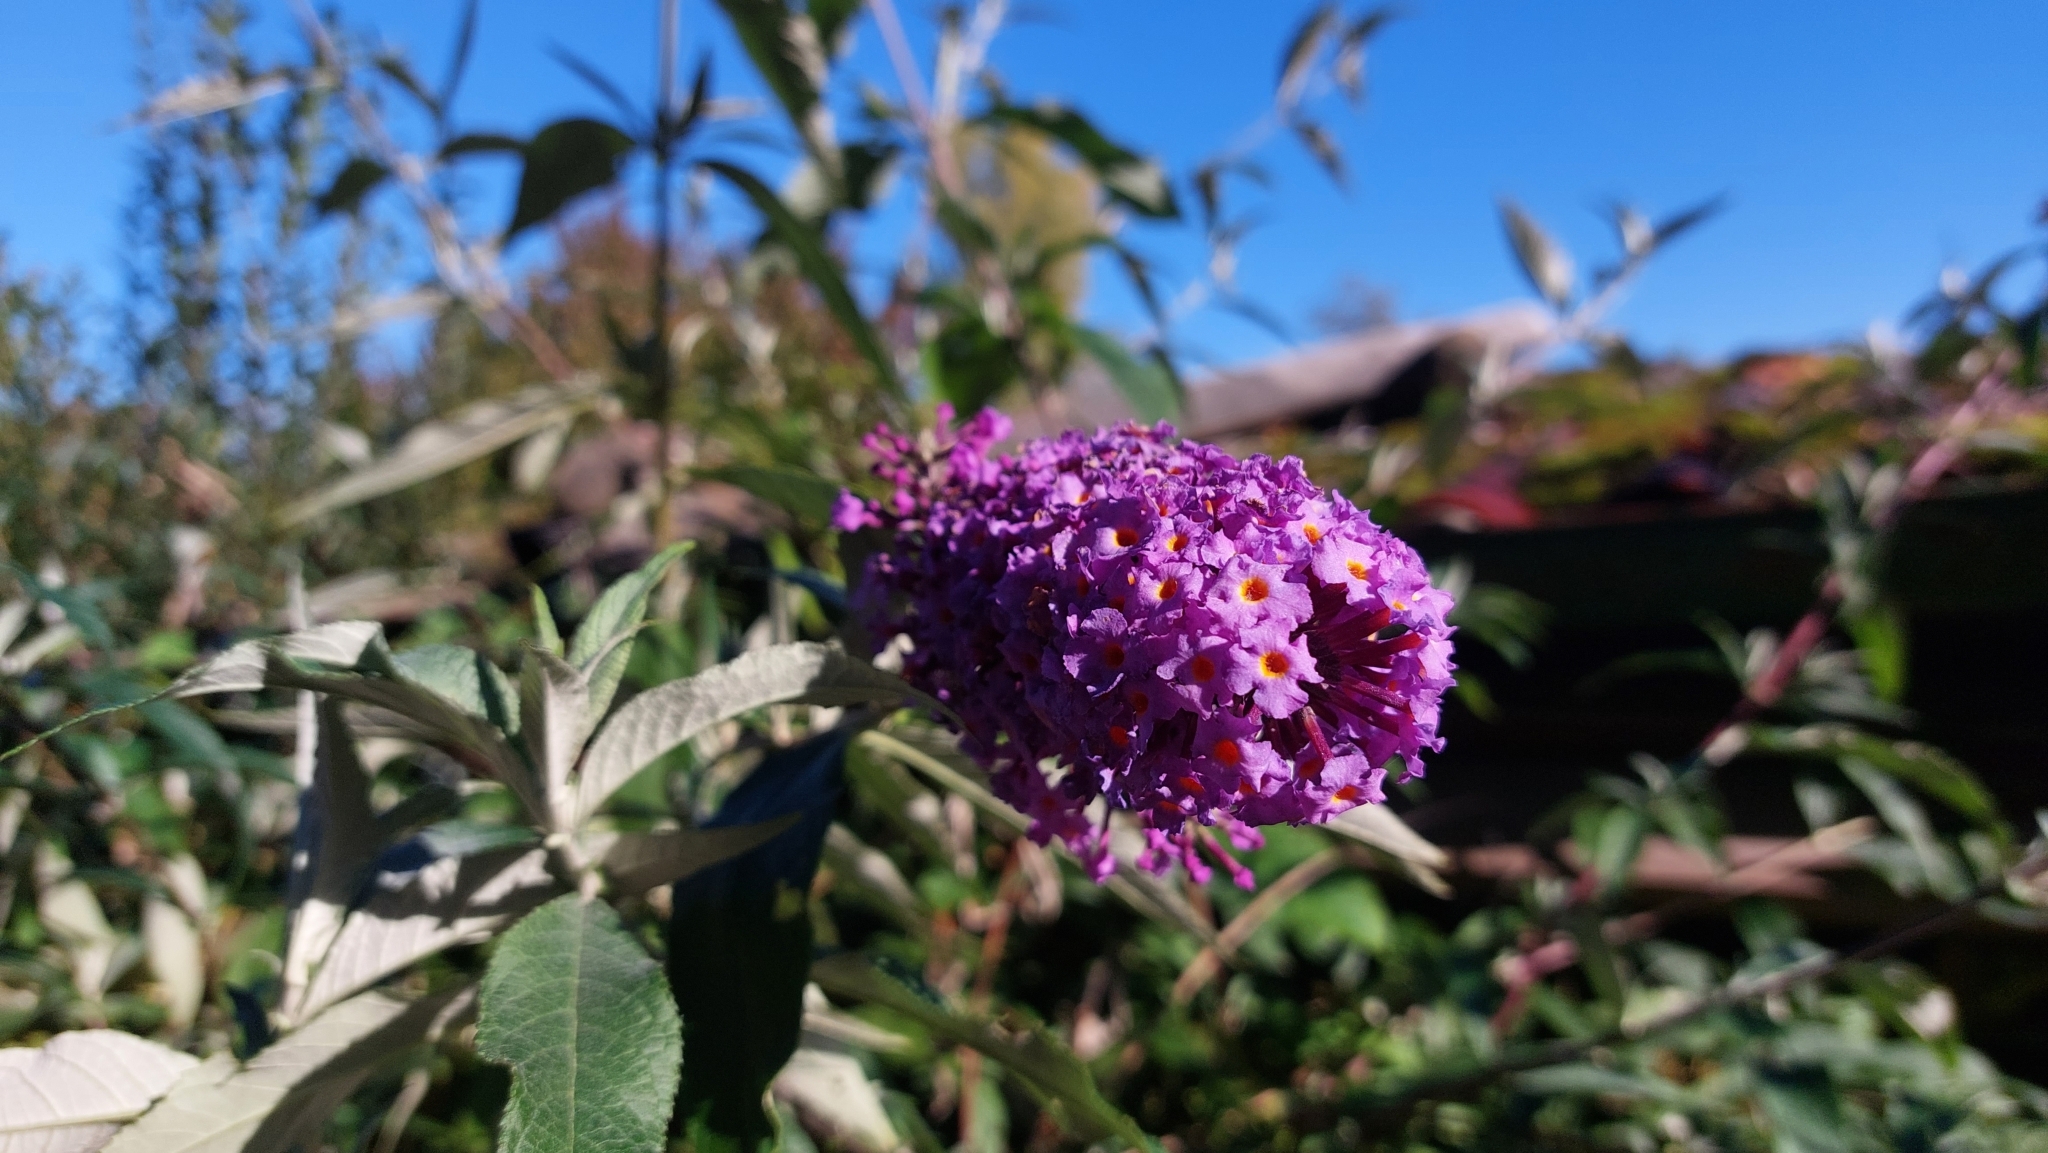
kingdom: Plantae
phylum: Tracheophyta
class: Magnoliopsida
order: Lamiales
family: Scrophulariaceae
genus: Buddleja
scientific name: Buddleja davidii
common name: Butterfly-bush
